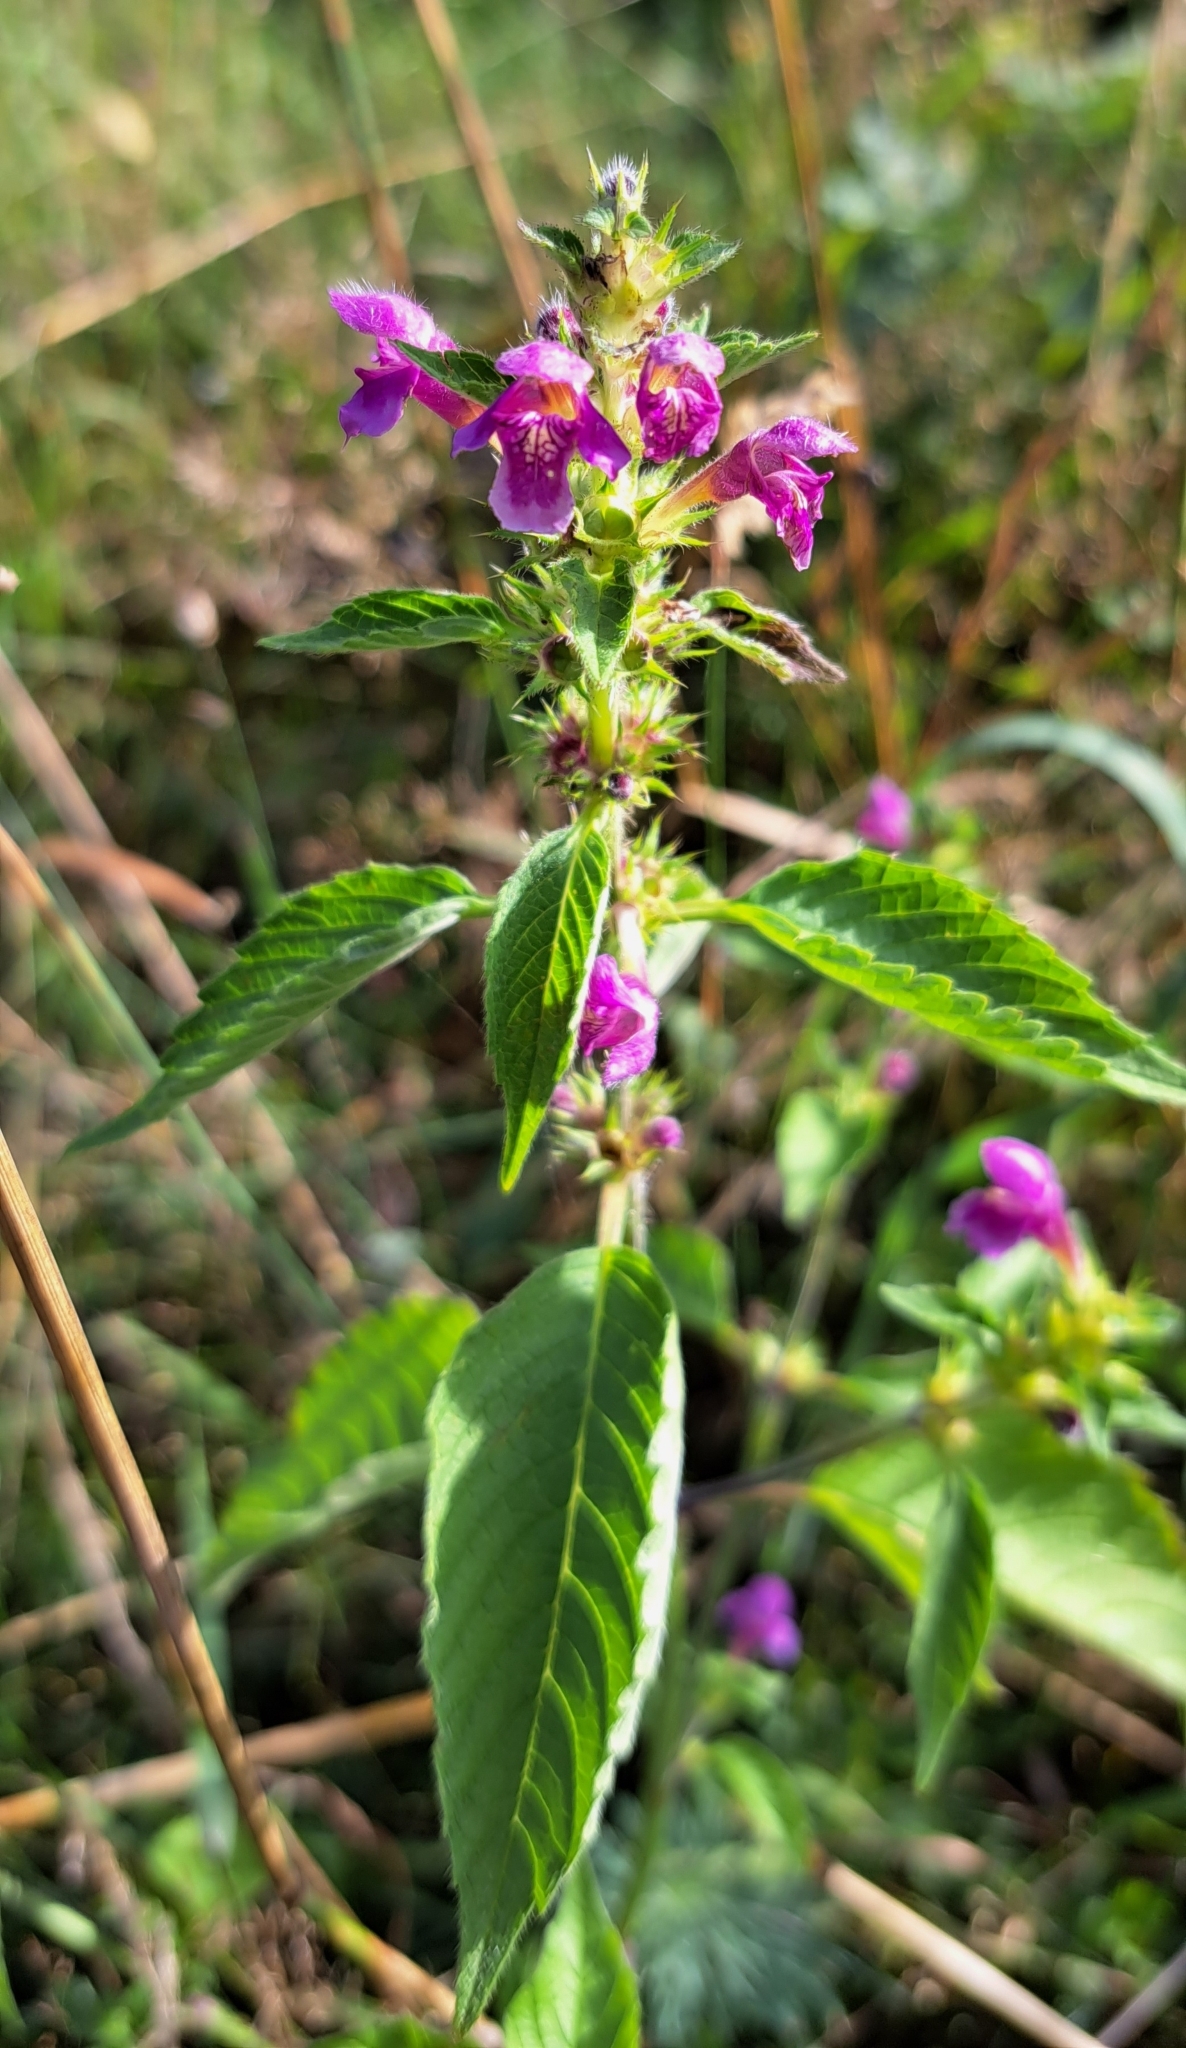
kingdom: Plantae
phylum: Tracheophyta
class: Magnoliopsida
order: Lamiales
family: Lamiaceae
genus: Galeopsis
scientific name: Galeopsis pubescens
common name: Downy hemp-nettle
